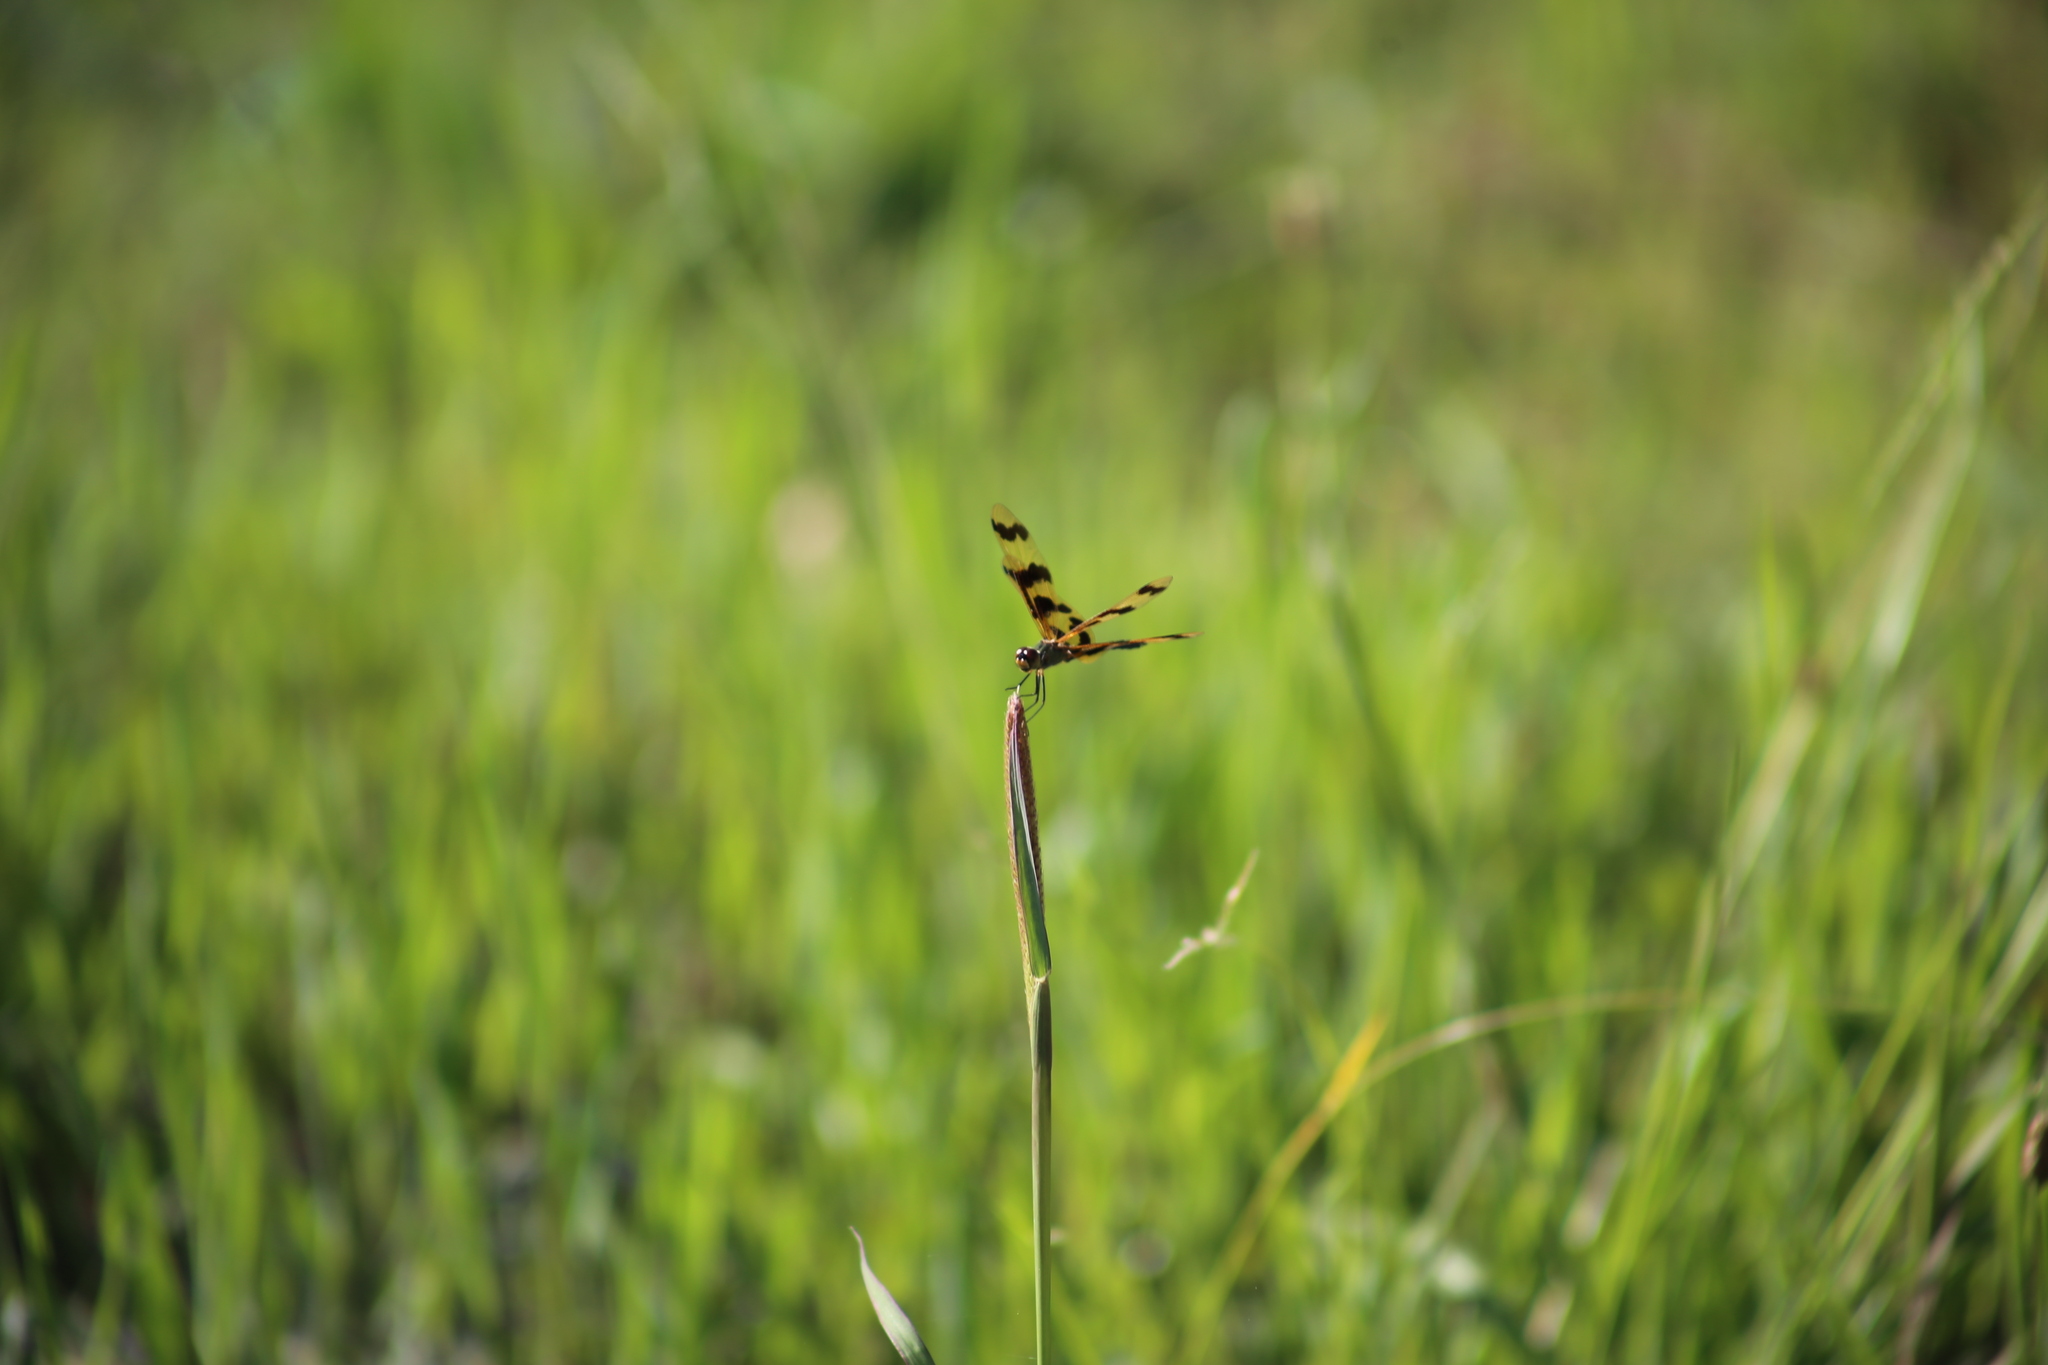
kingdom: Animalia
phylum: Arthropoda
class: Insecta
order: Odonata
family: Libellulidae
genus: Rhyothemis
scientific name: Rhyothemis graphiptera
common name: Graphic flutterer
